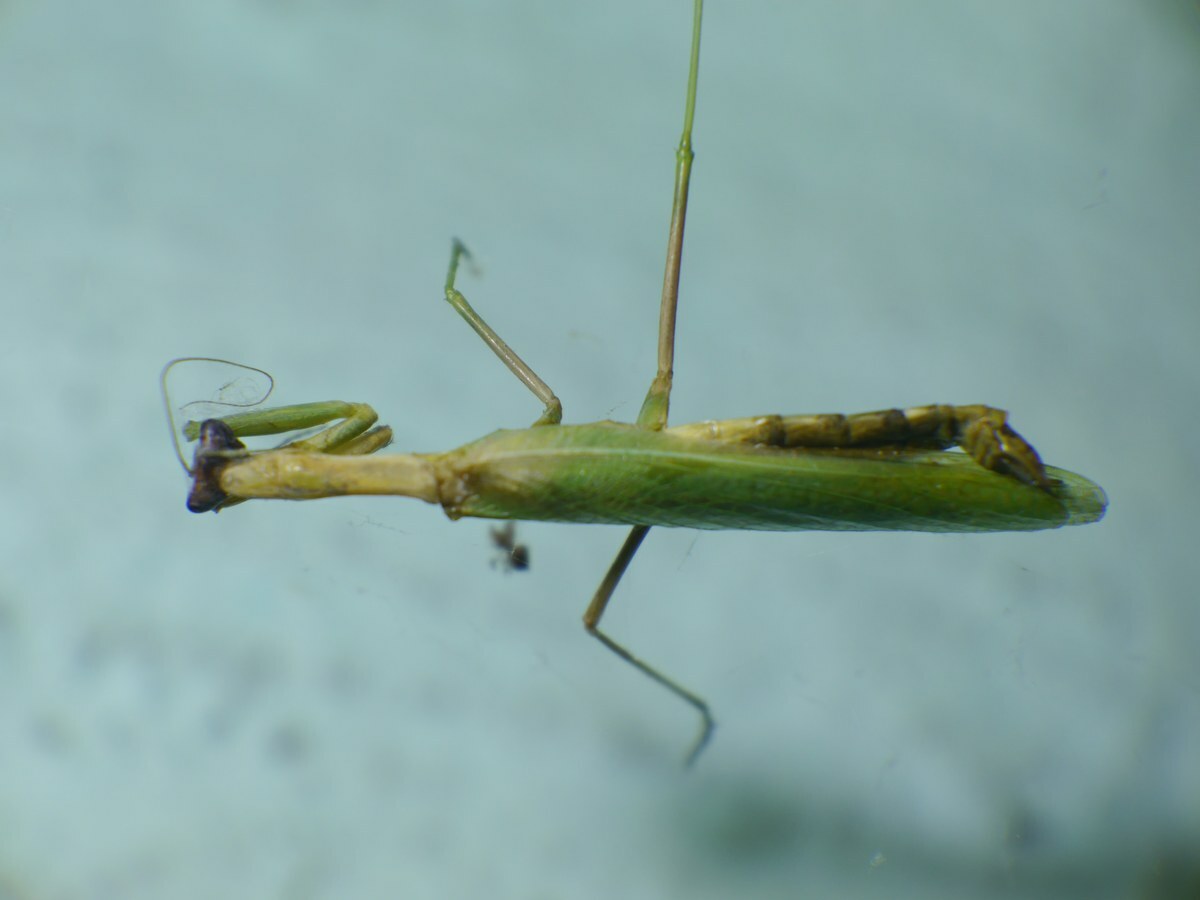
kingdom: Animalia
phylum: Arthropoda
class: Insecta
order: Mantodea
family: Eremiaphilidae
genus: Iris
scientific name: Iris polystictica
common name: Dot-winged mantis
